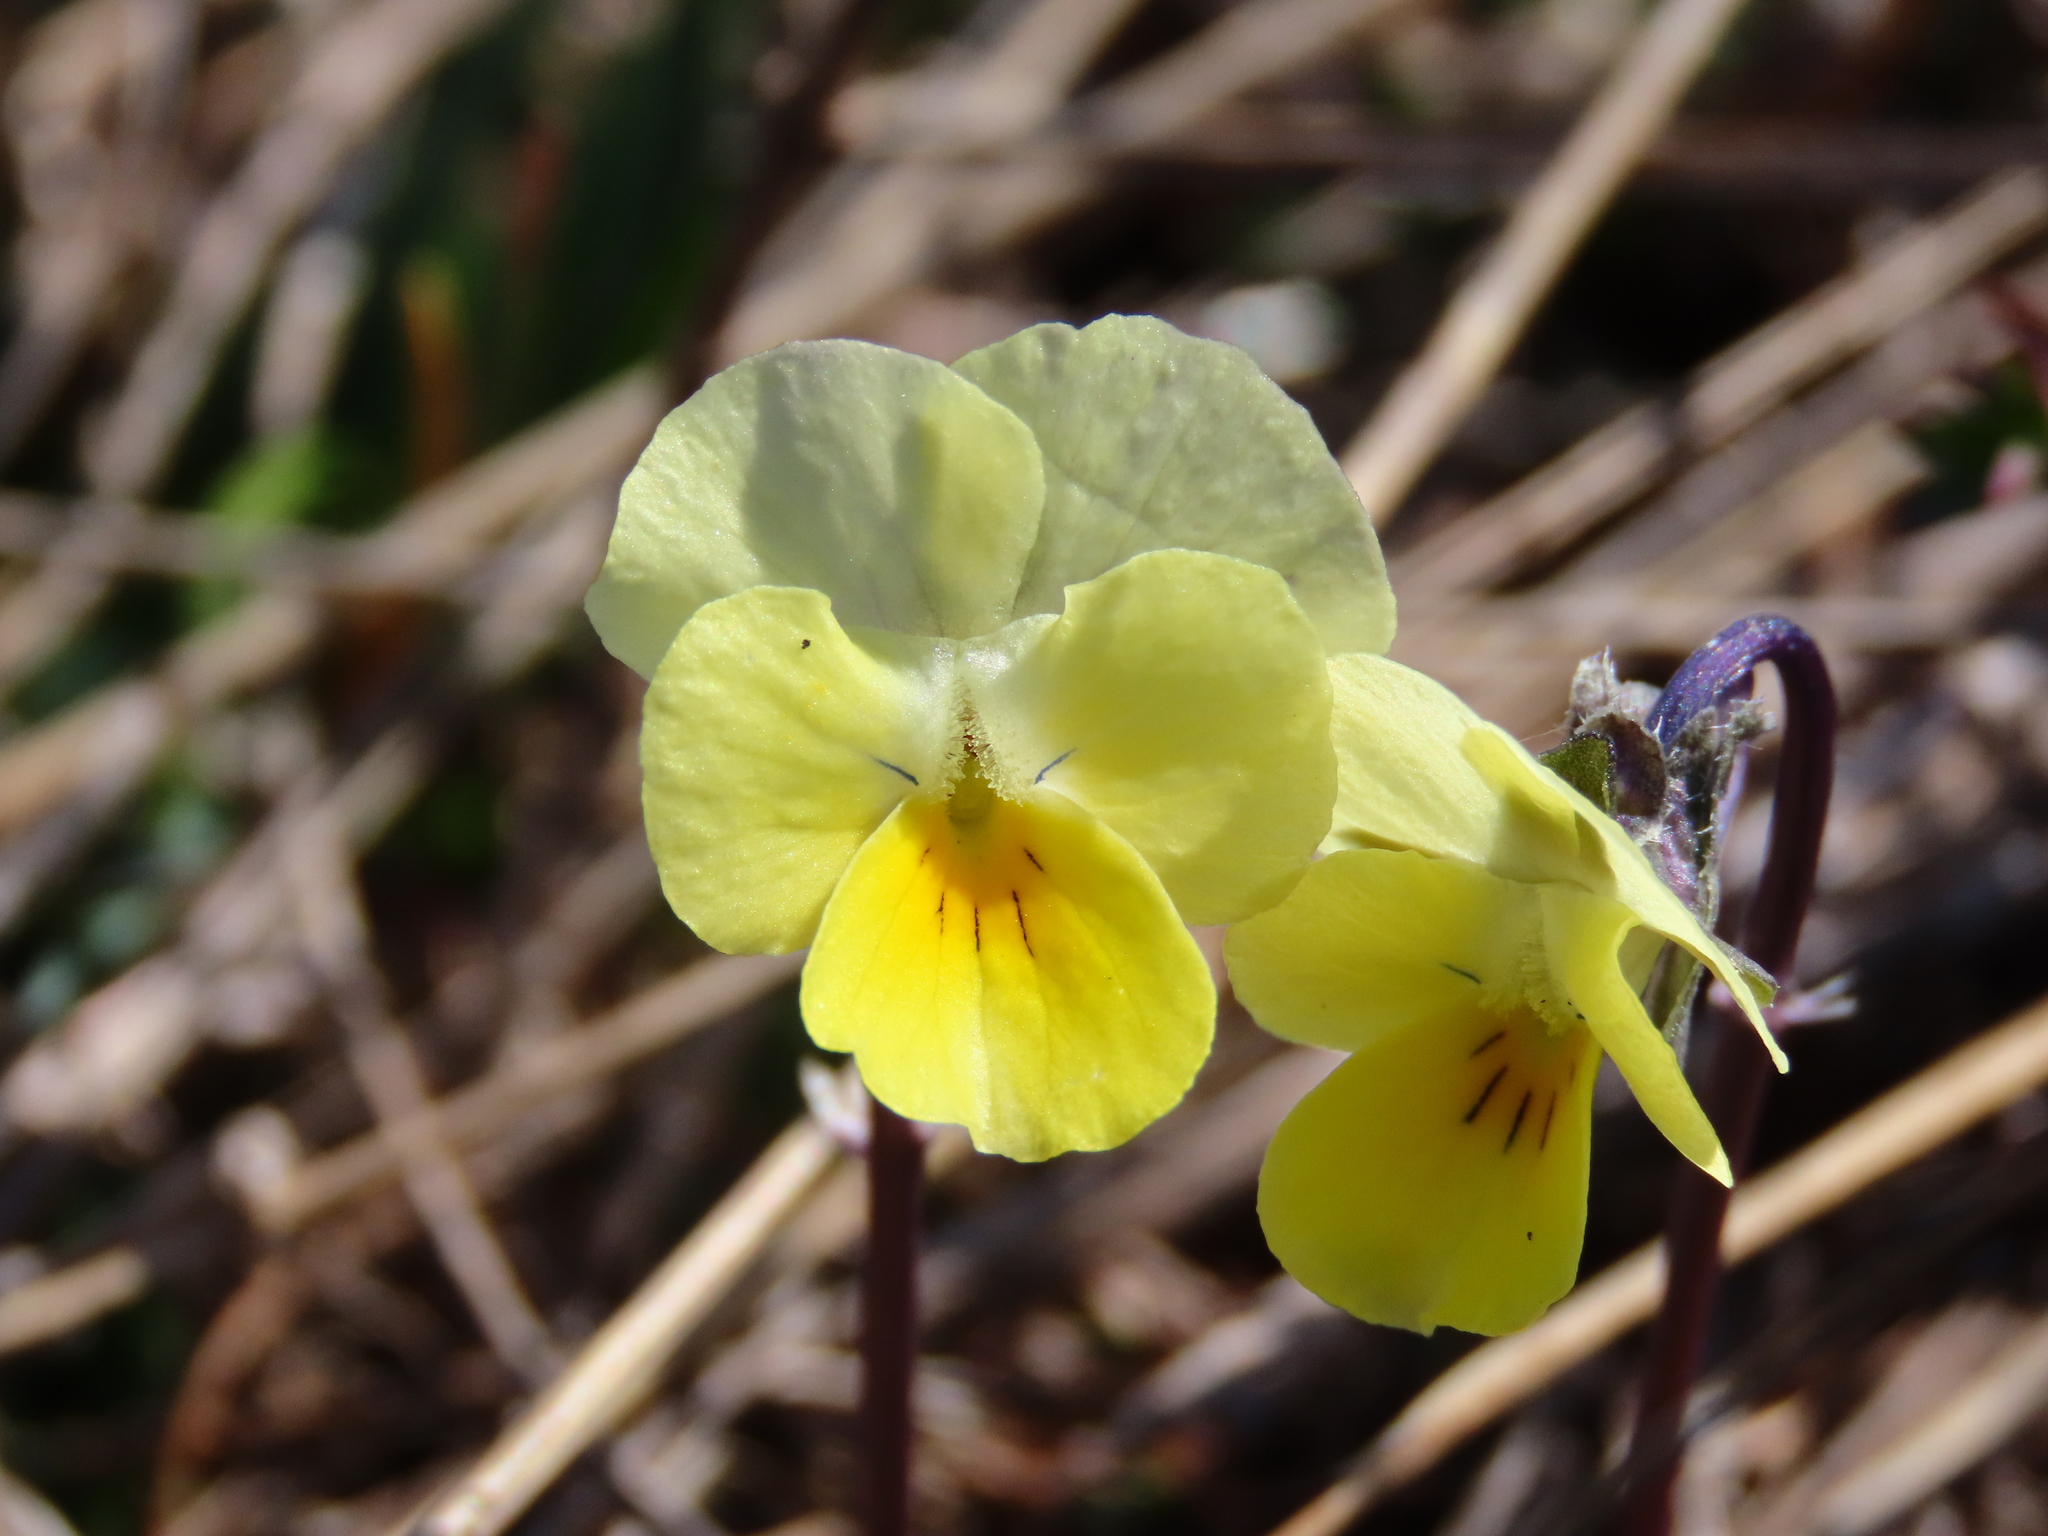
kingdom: Plantae
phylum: Tracheophyta
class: Magnoliopsida
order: Malpighiales
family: Violaceae
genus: Viola
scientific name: Viola eugeniae
